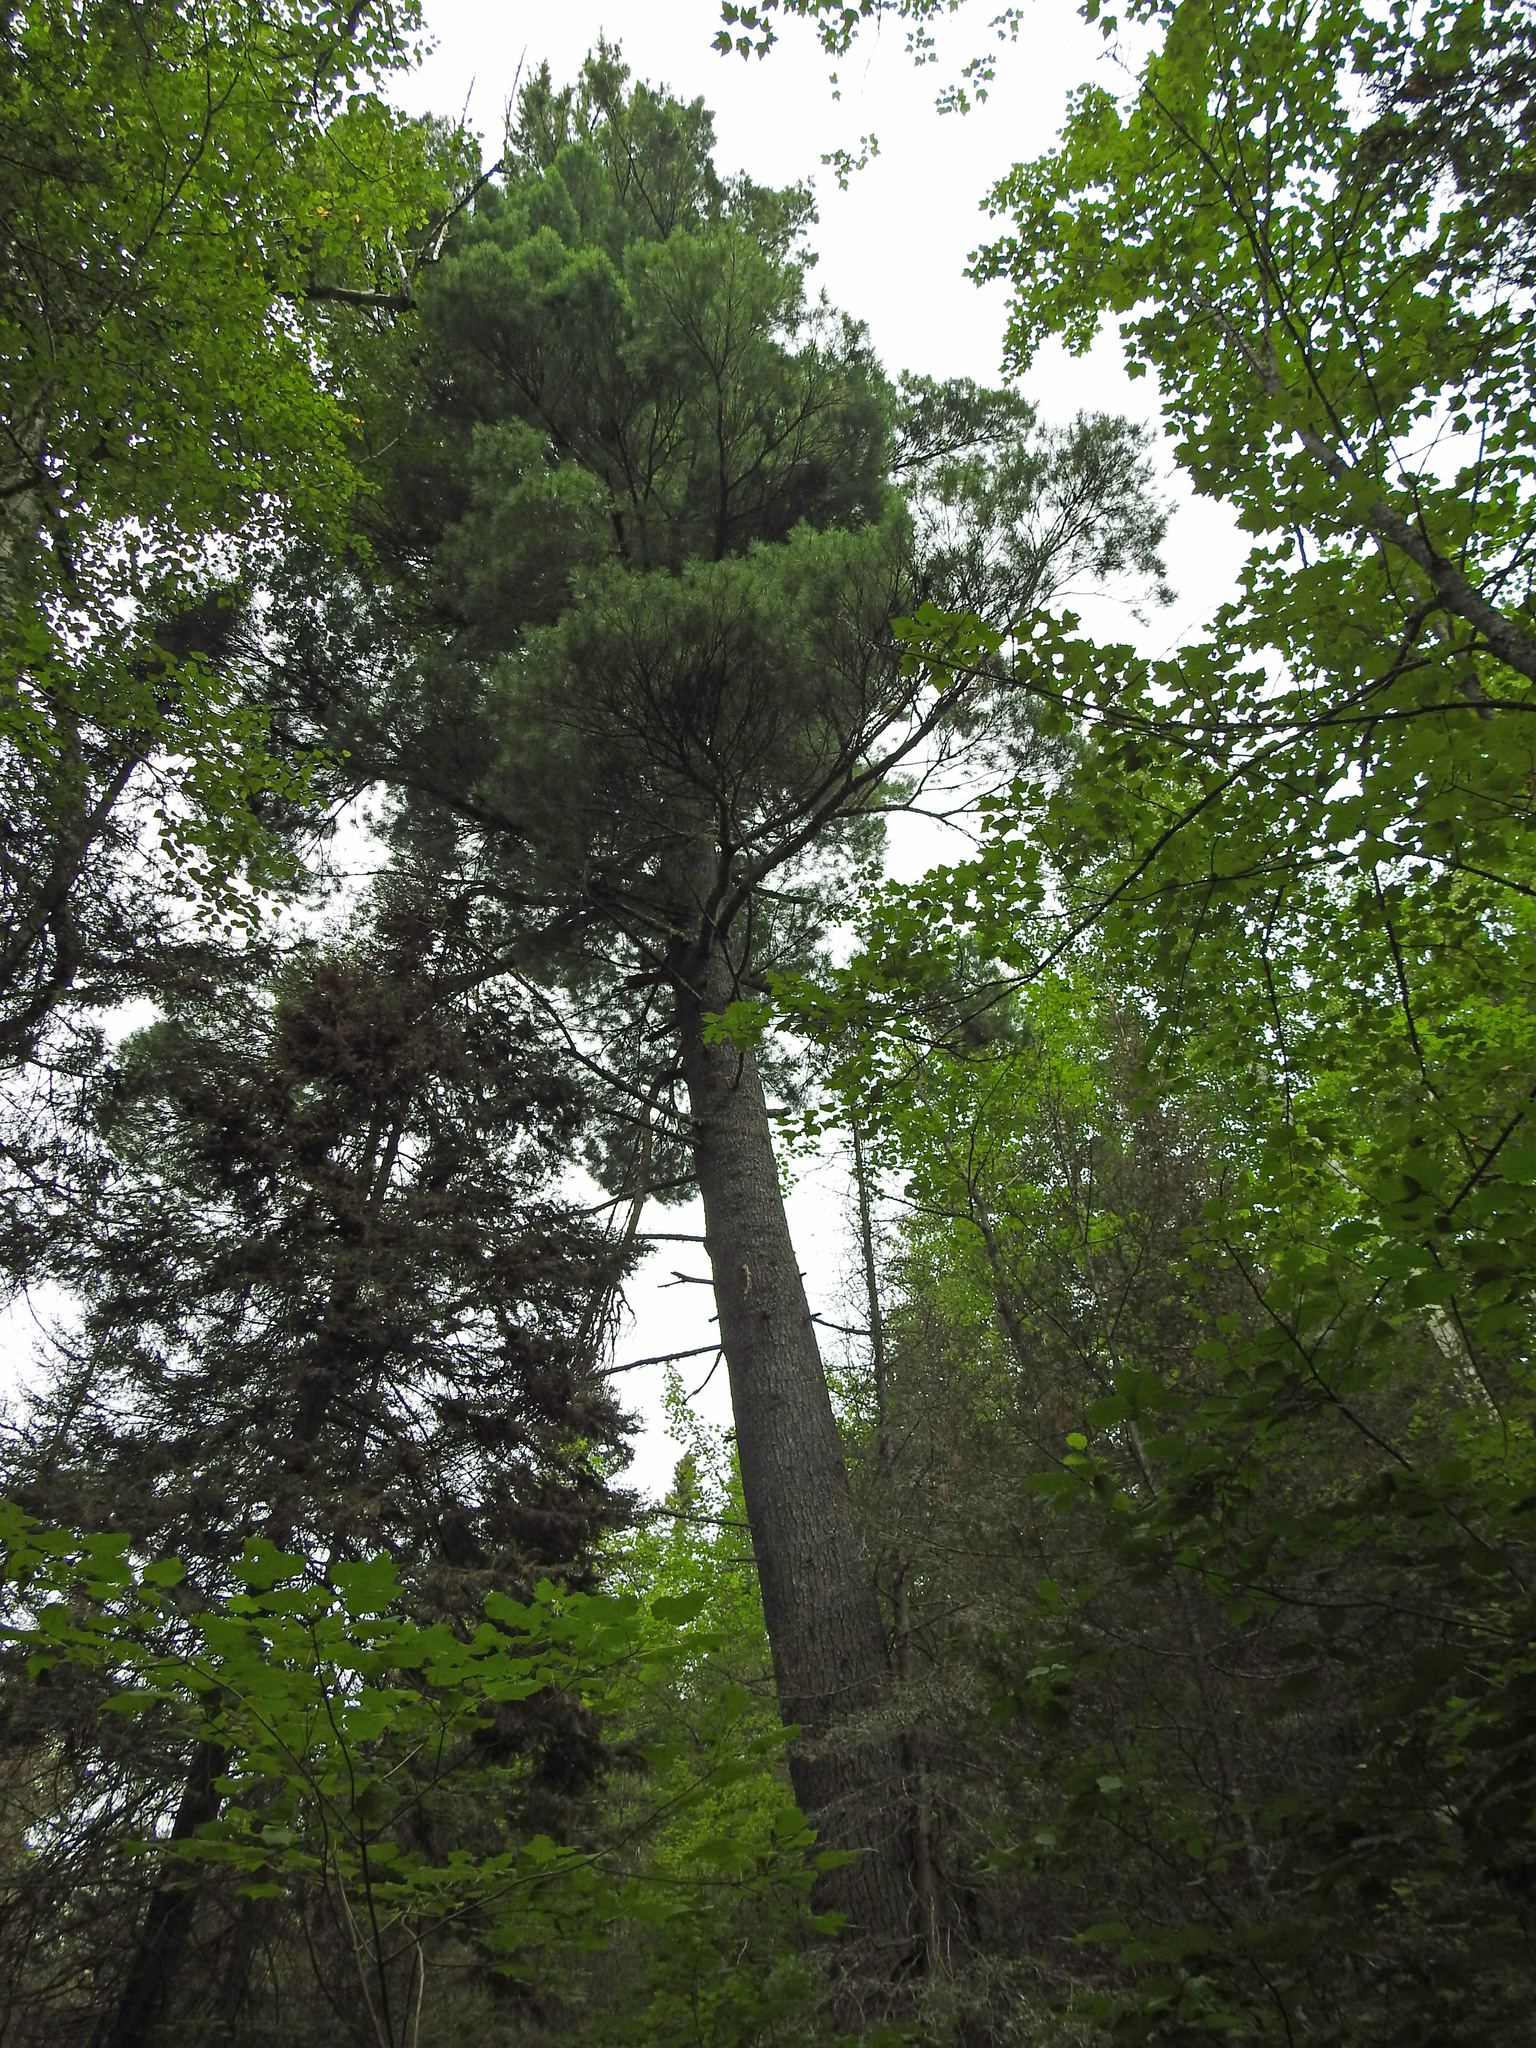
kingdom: Plantae
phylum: Tracheophyta
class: Pinopsida
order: Pinales
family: Pinaceae
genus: Pinus
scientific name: Pinus strobus
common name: Weymouth pine
